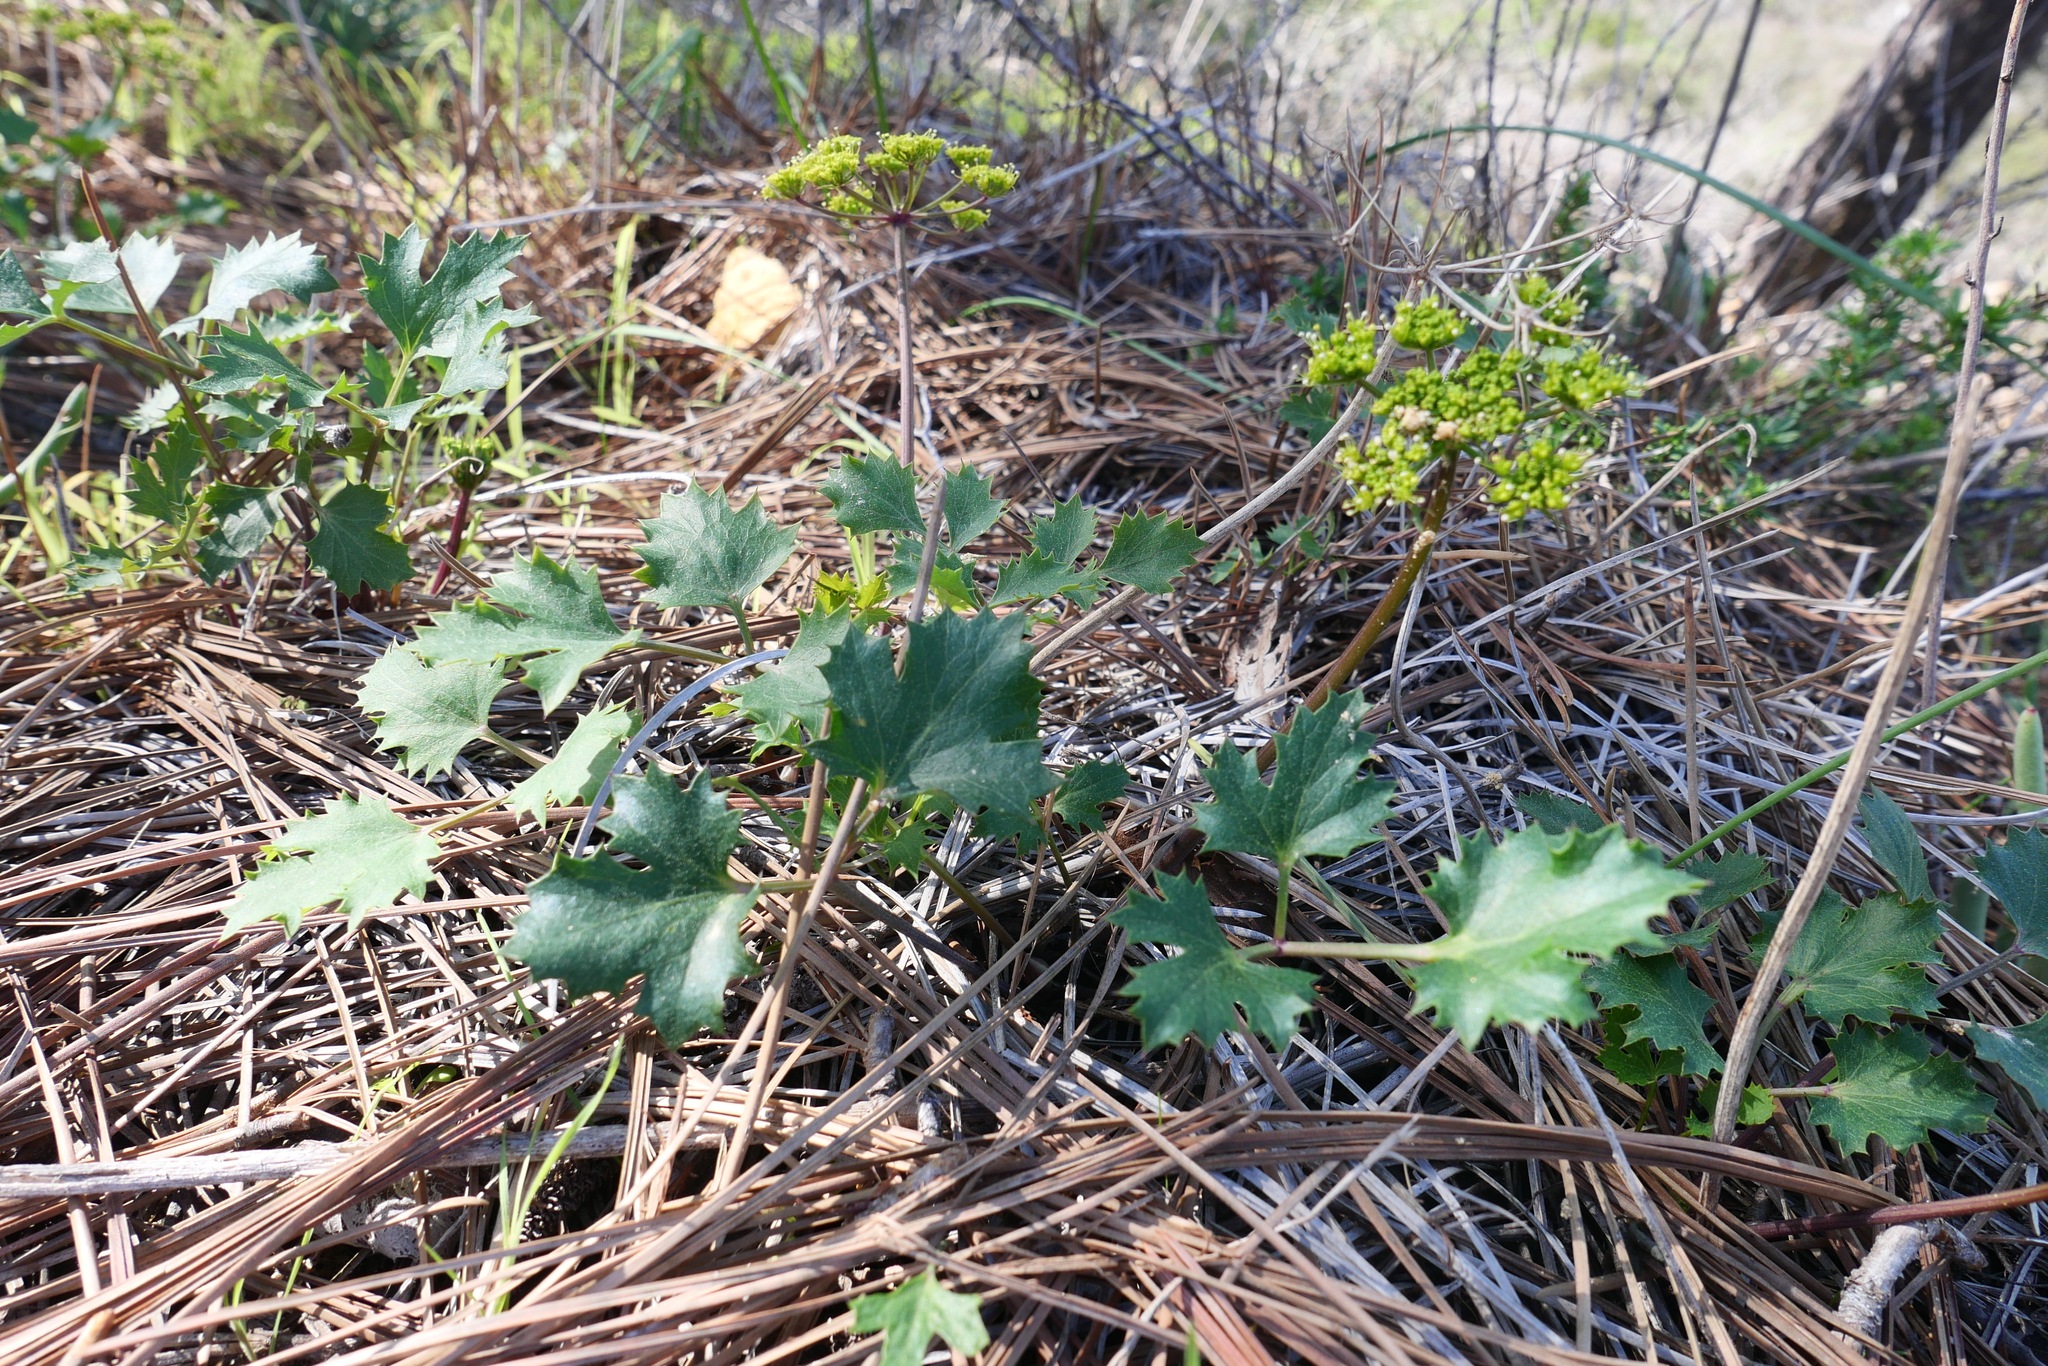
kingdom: Plantae
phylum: Tracheophyta
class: Magnoliopsida
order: Apiales
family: Apiaceae
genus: Lomatium
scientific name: Lomatium lucidum
